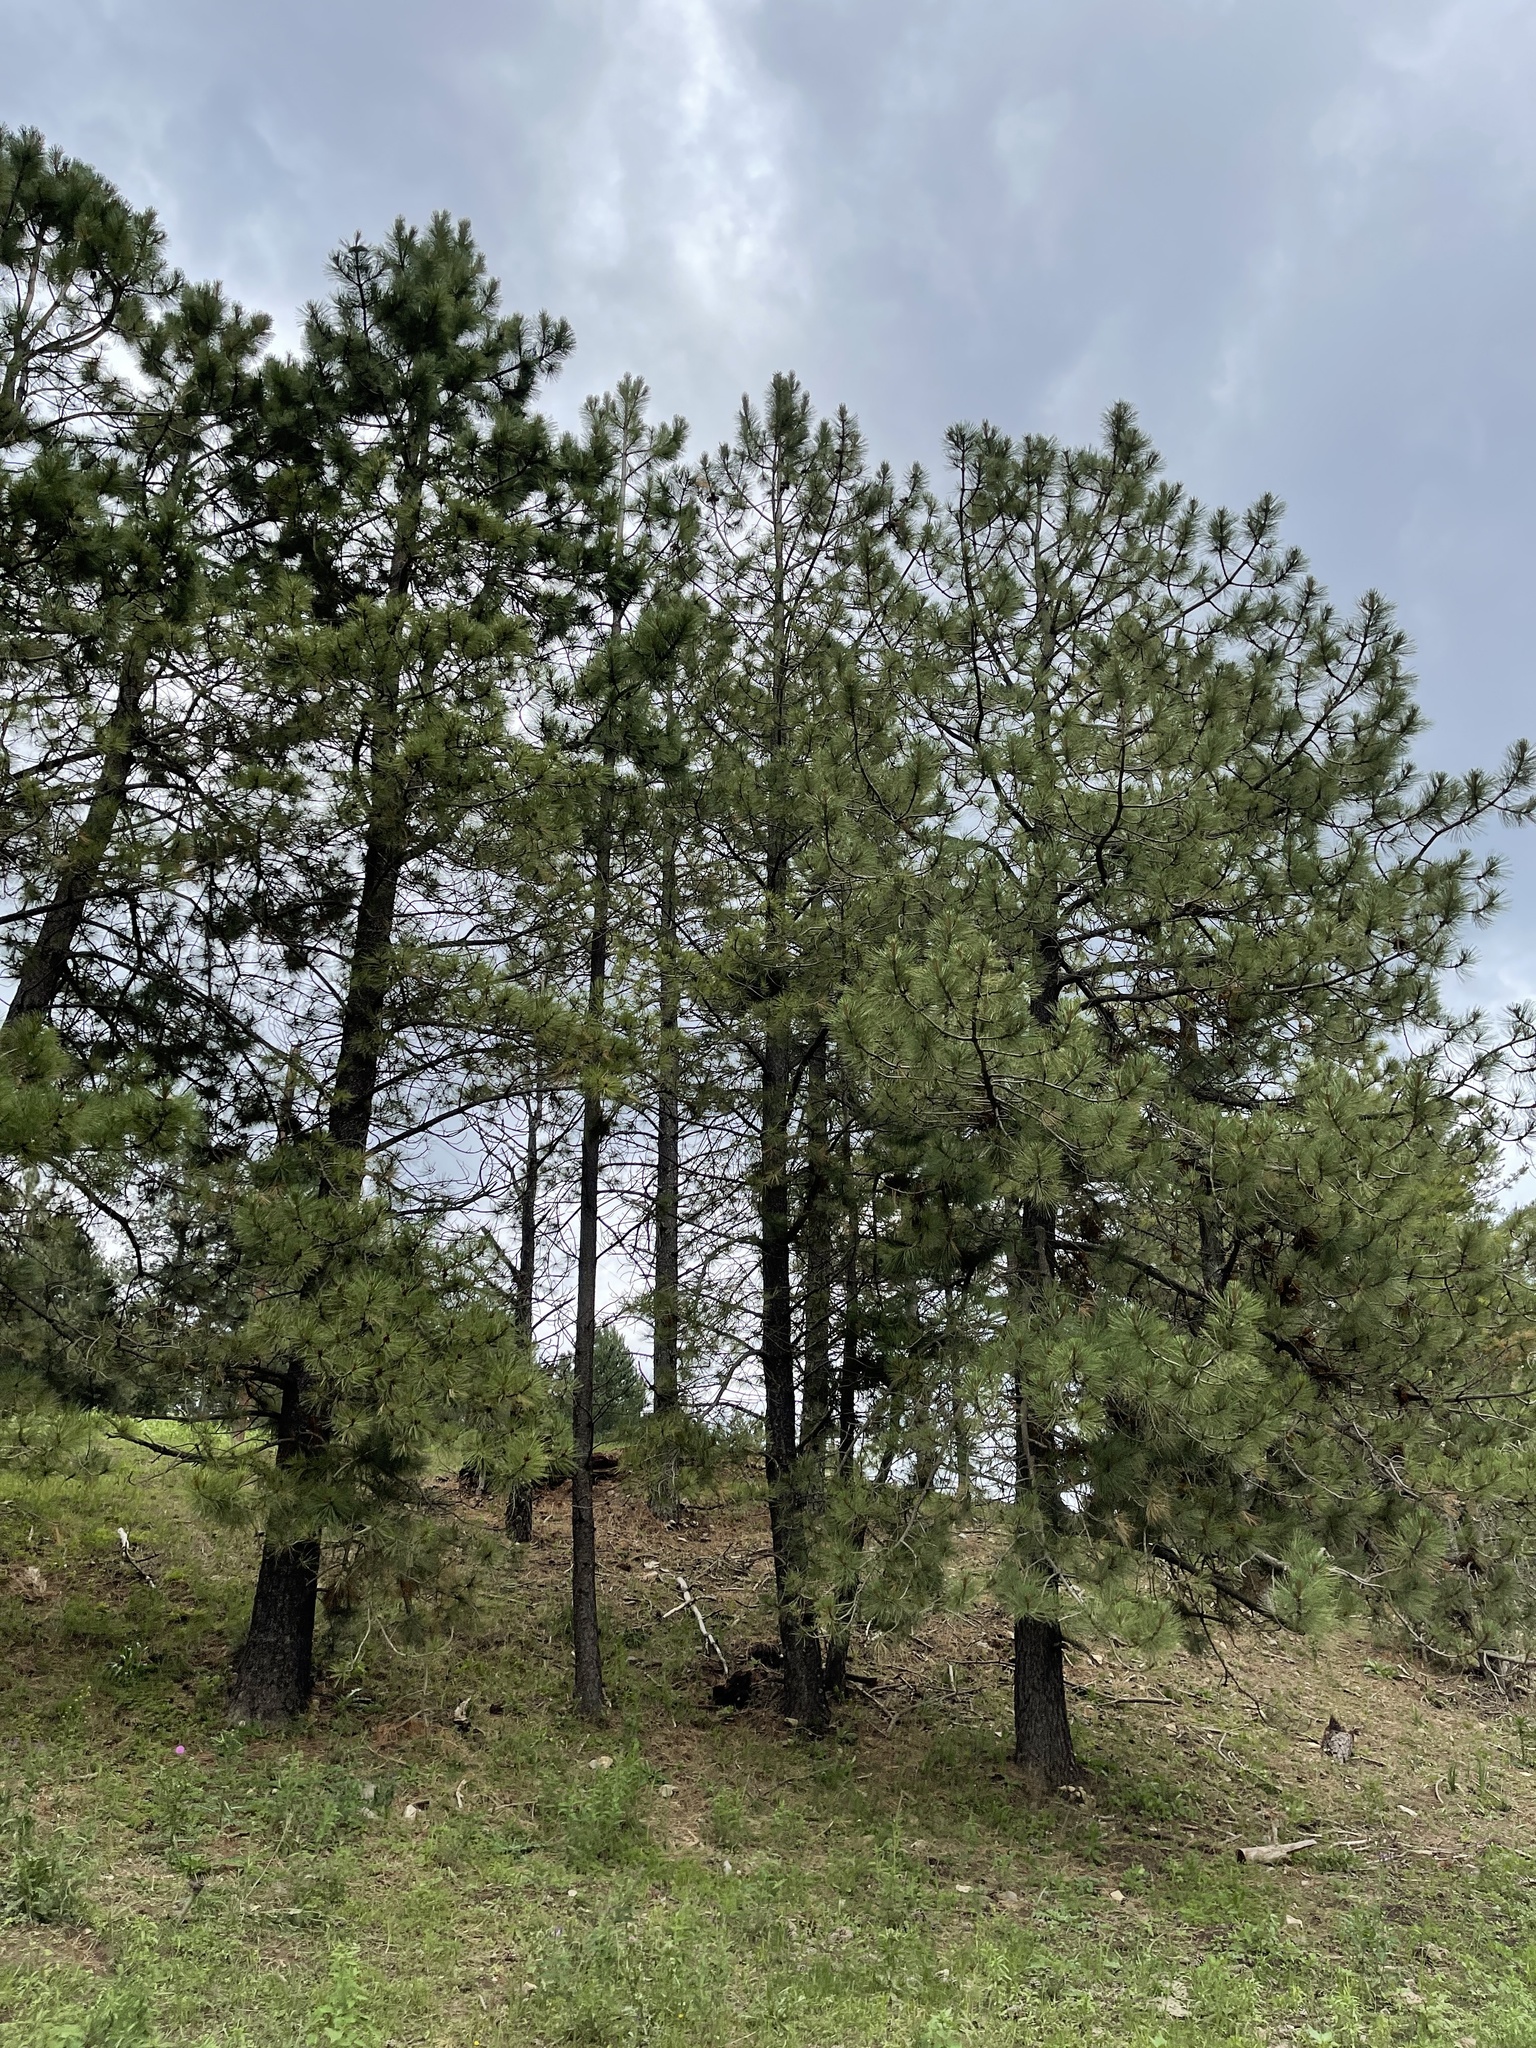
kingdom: Plantae
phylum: Tracheophyta
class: Pinopsida
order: Pinales
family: Pinaceae
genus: Pinus
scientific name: Pinus ponderosa
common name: Western yellow-pine
